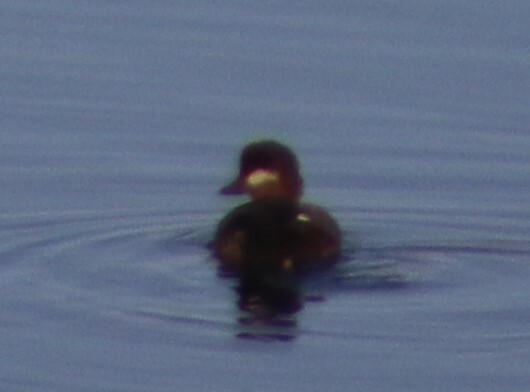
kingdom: Animalia
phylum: Chordata
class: Aves
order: Anseriformes
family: Anatidae
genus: Bucephala
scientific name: Bucephala albeola
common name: Bufflehead
